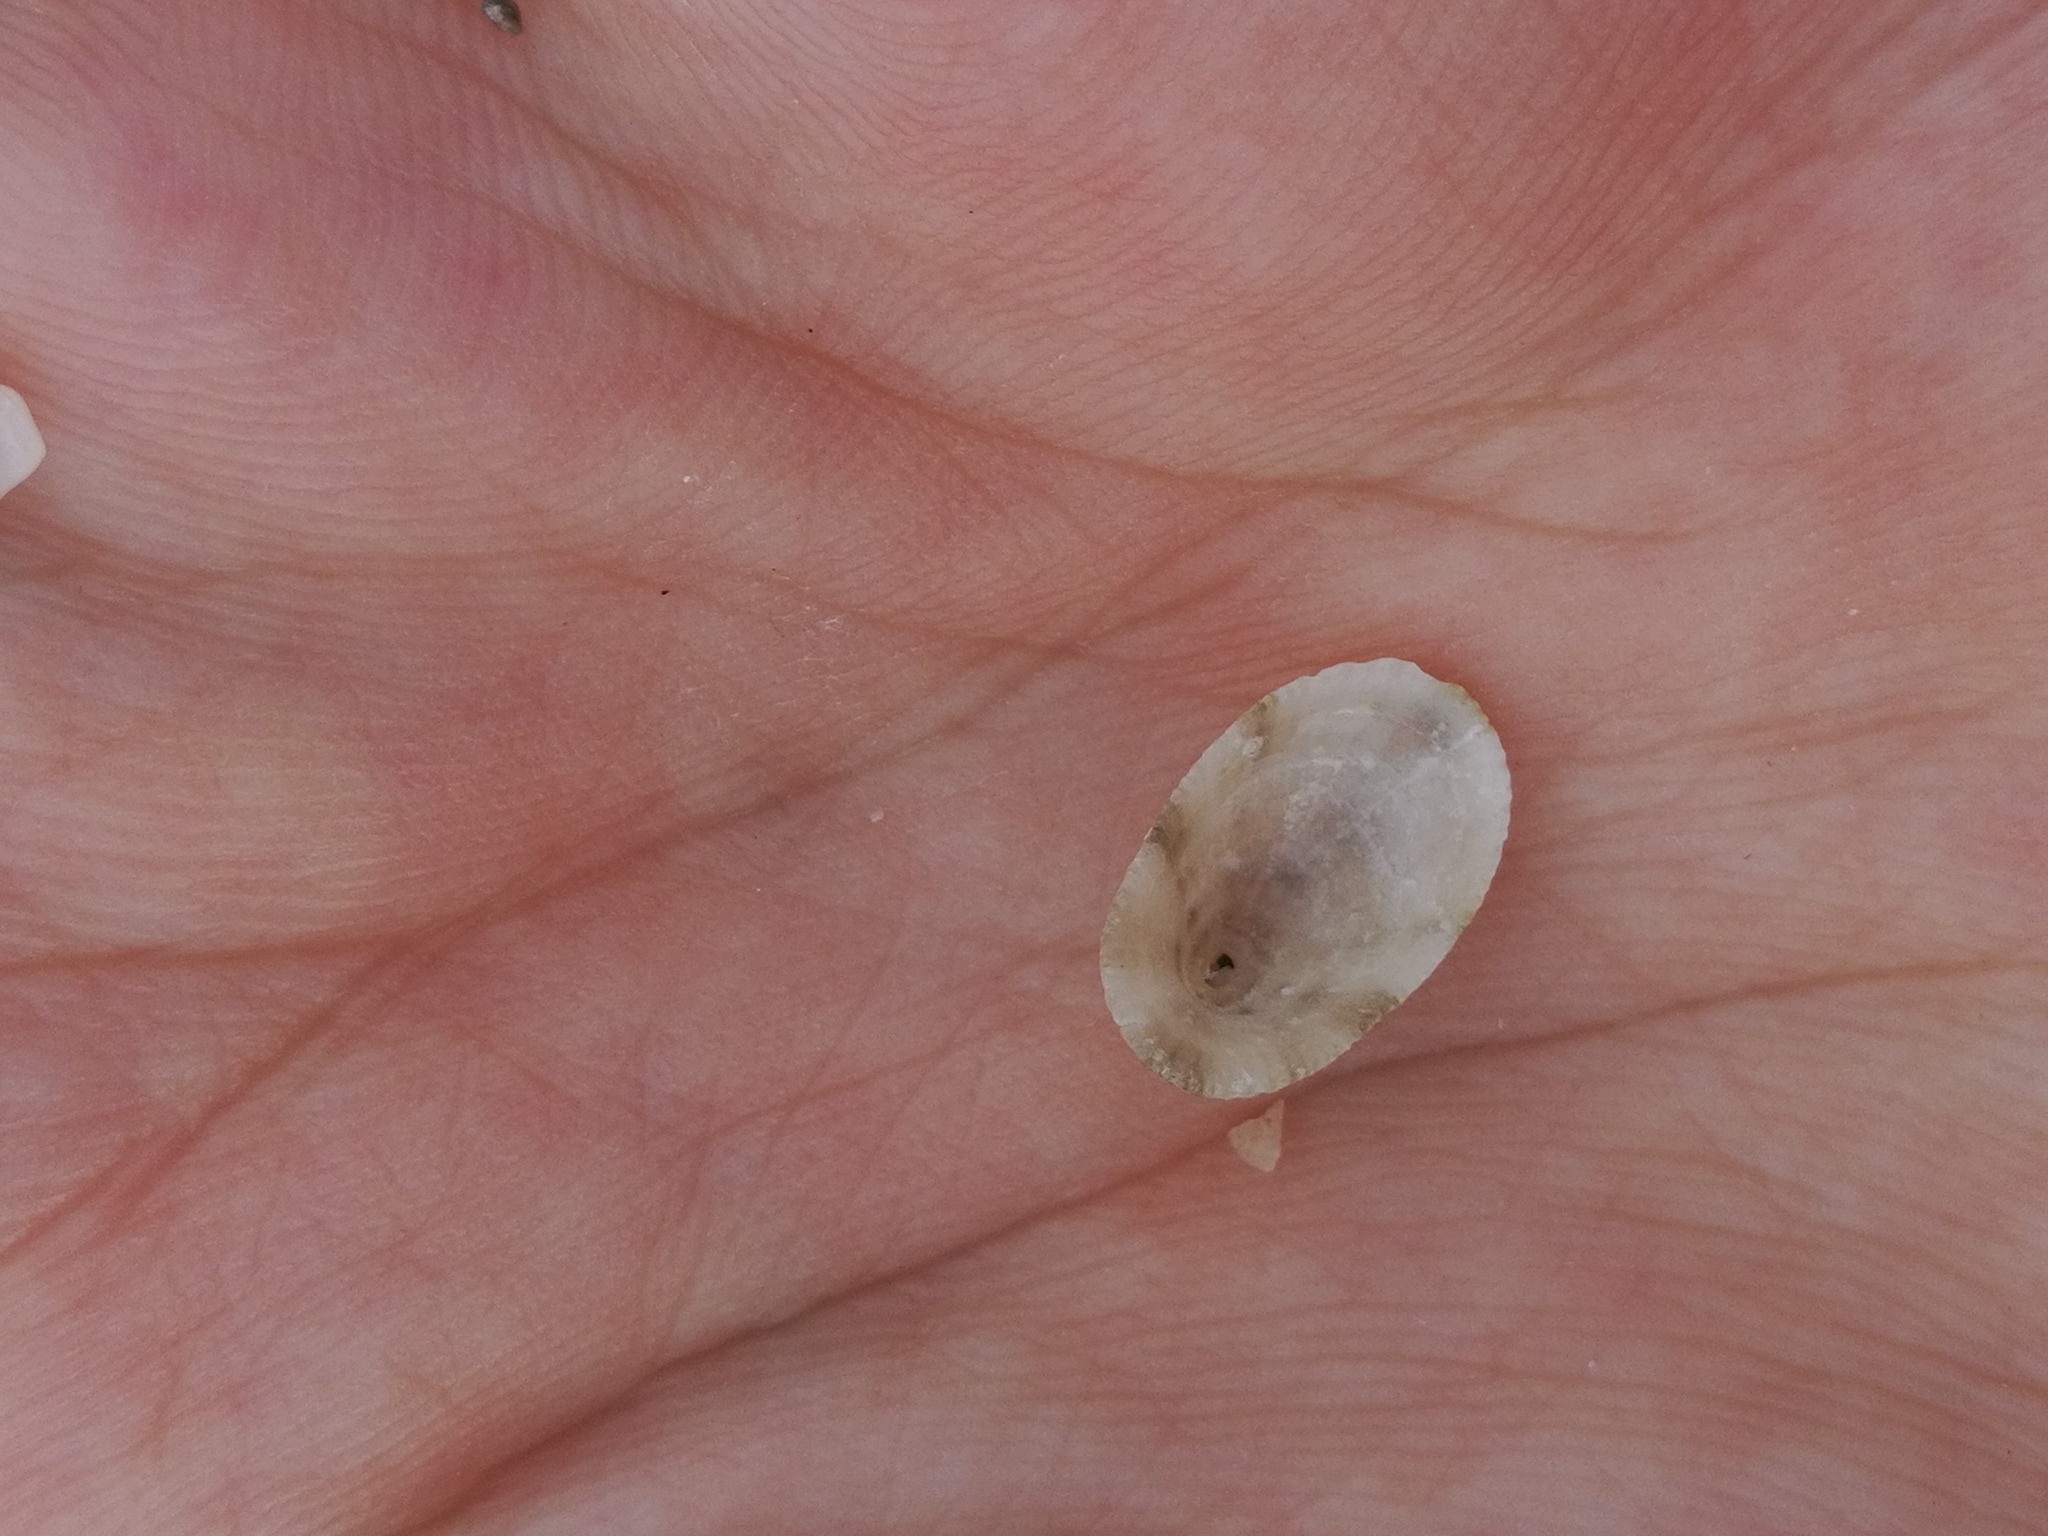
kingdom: Animalia
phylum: Mollusca
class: Gastropoda
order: Lepetellida
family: Fissurellidae
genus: Diodora
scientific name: Diodora gibberula
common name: Humped keyhole limpet
